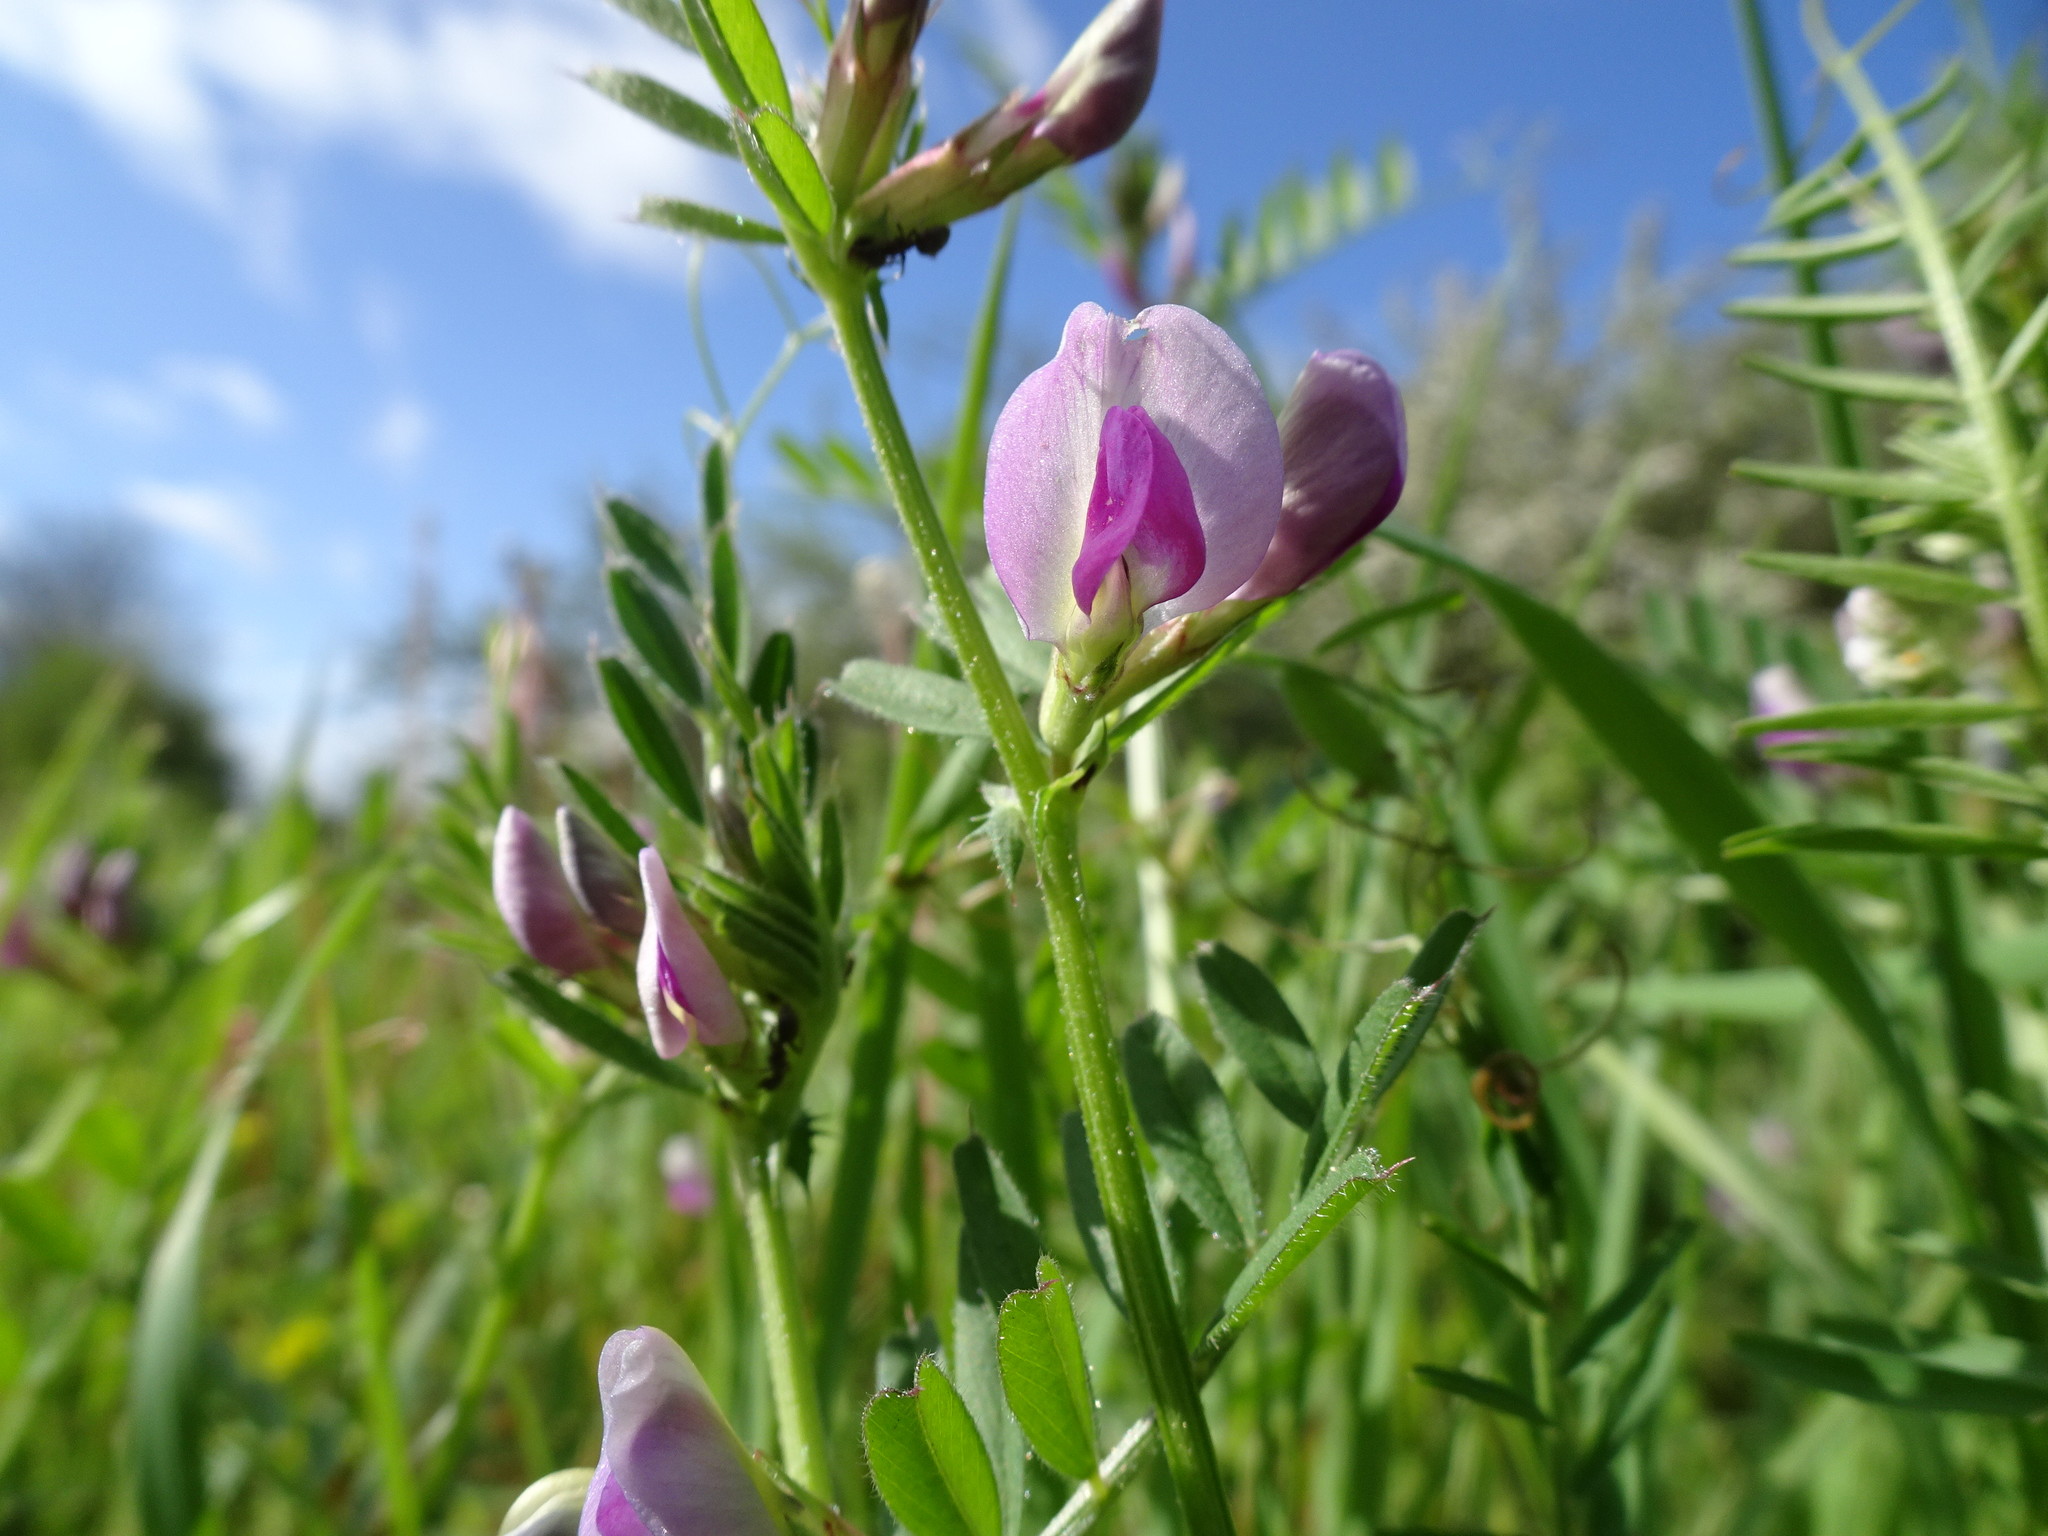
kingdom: Plantae
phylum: Tracheophyta
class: Magnoliopsida
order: Fabales
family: Fabaceae
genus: Vicia
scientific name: Vicia sativa
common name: Garden vetch
